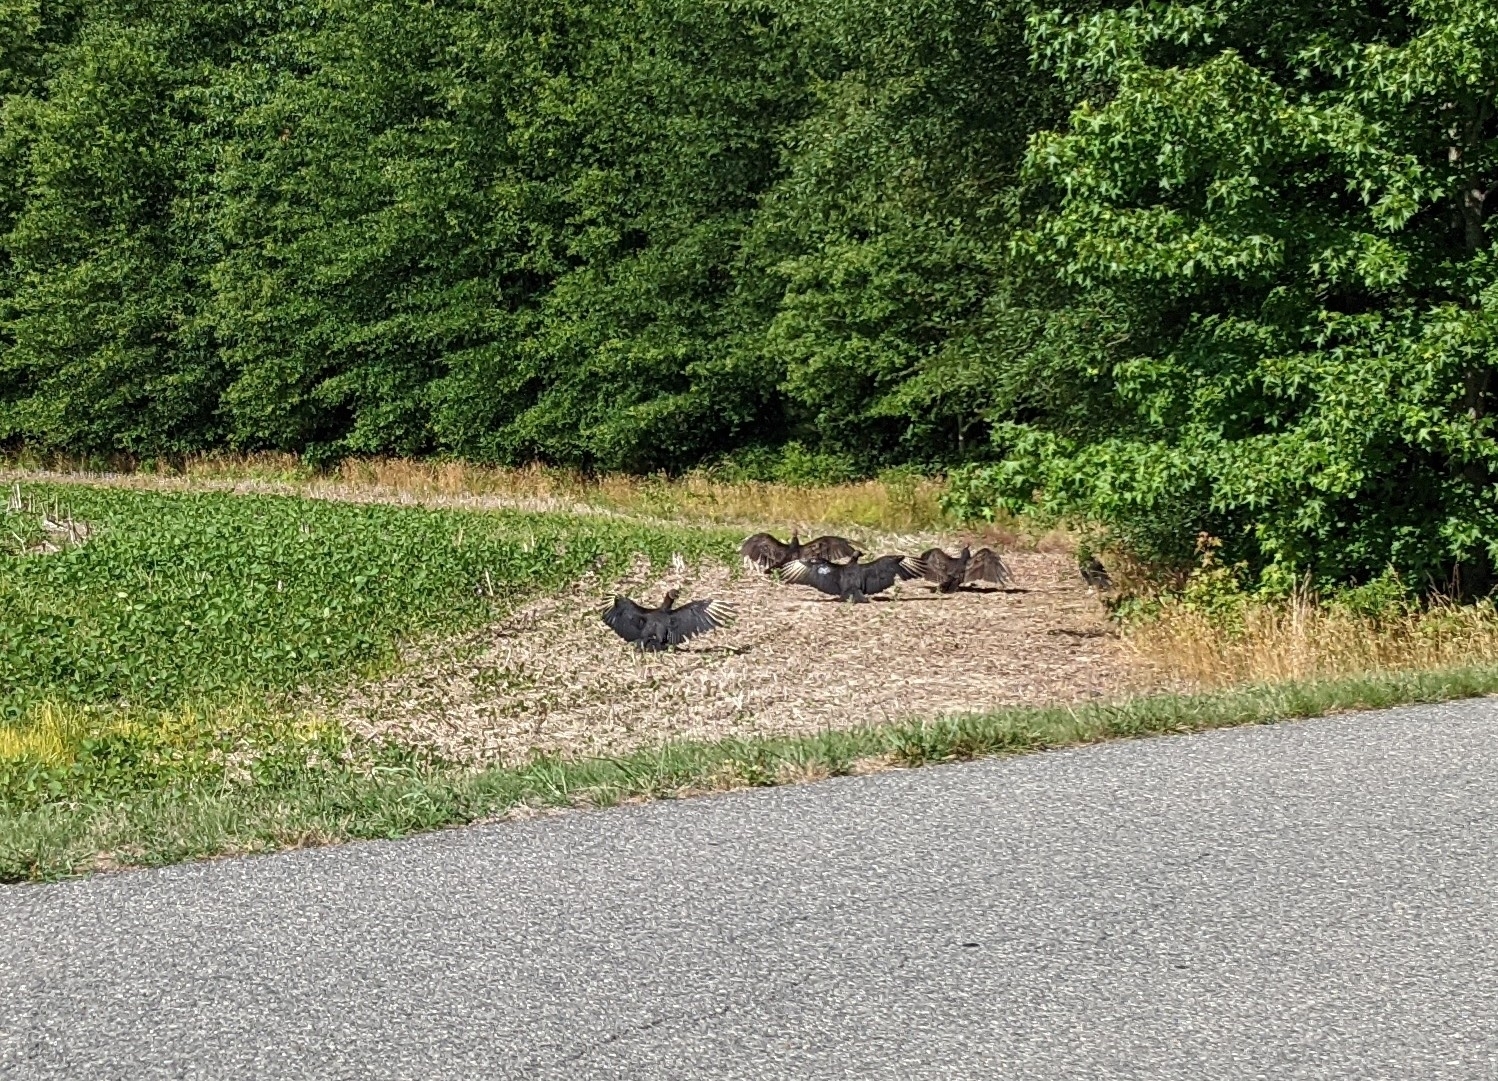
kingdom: Animalia
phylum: Chordata
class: Aves
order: Accipitriformes
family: Cathartidae
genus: Coragyps
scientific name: Coragyps atratus
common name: Black vulture
